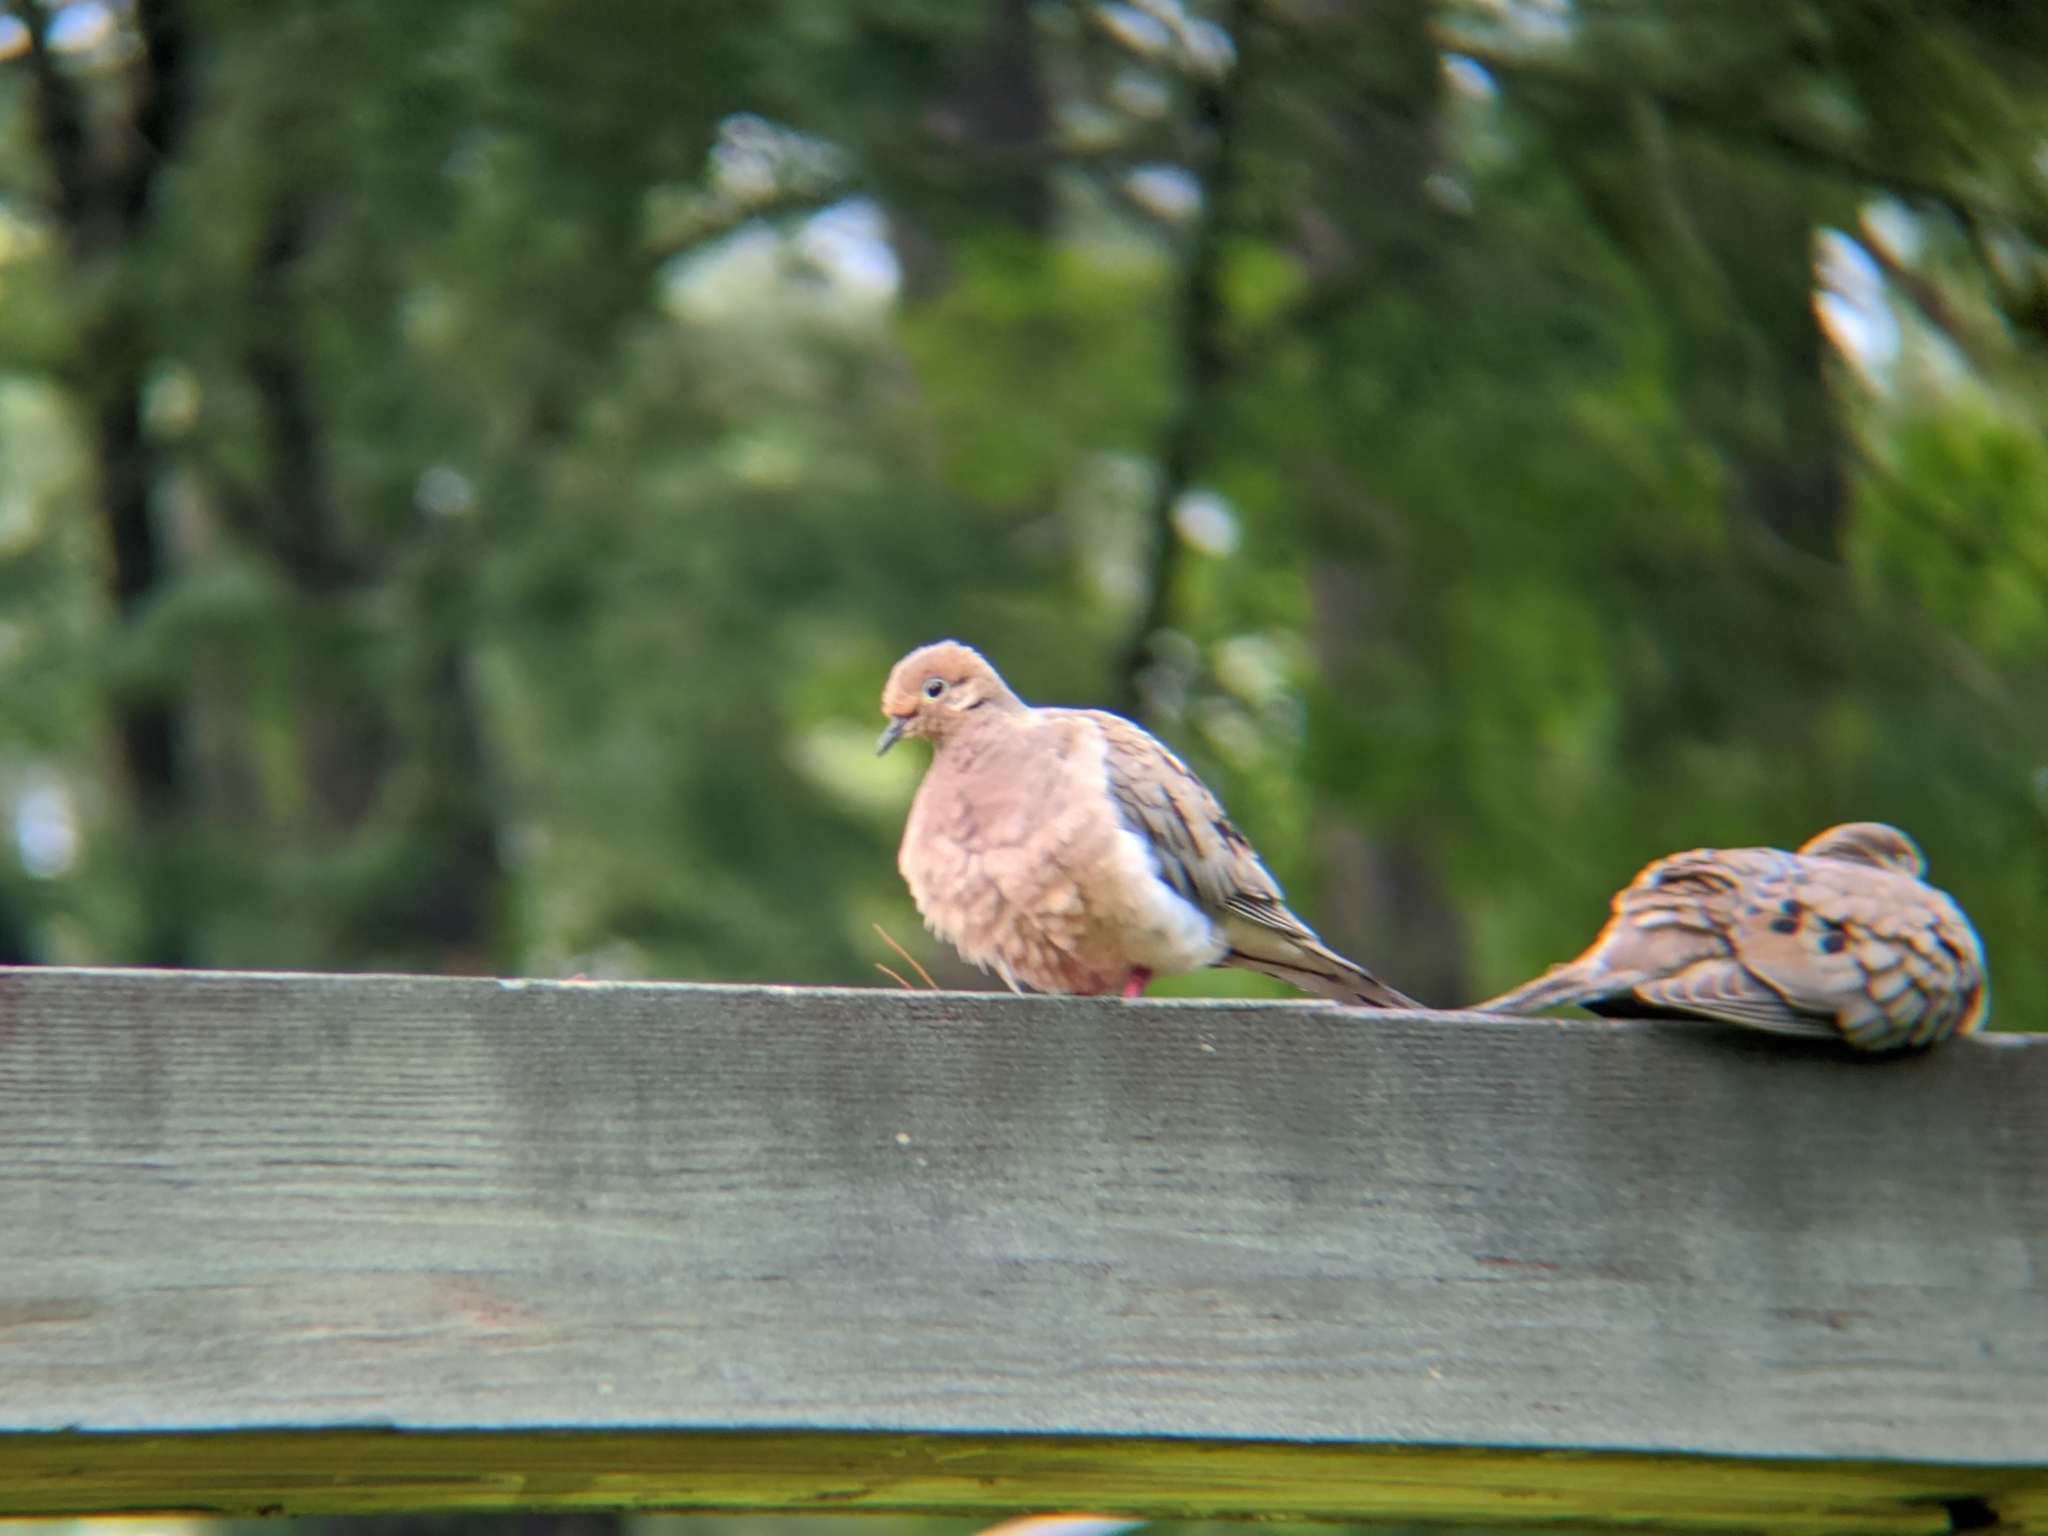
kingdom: Animalia
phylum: Chordata
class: Aves
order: Columbiformes
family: Columbidae
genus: Zenaida
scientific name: Zenaida macroura
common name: Mourning dove
